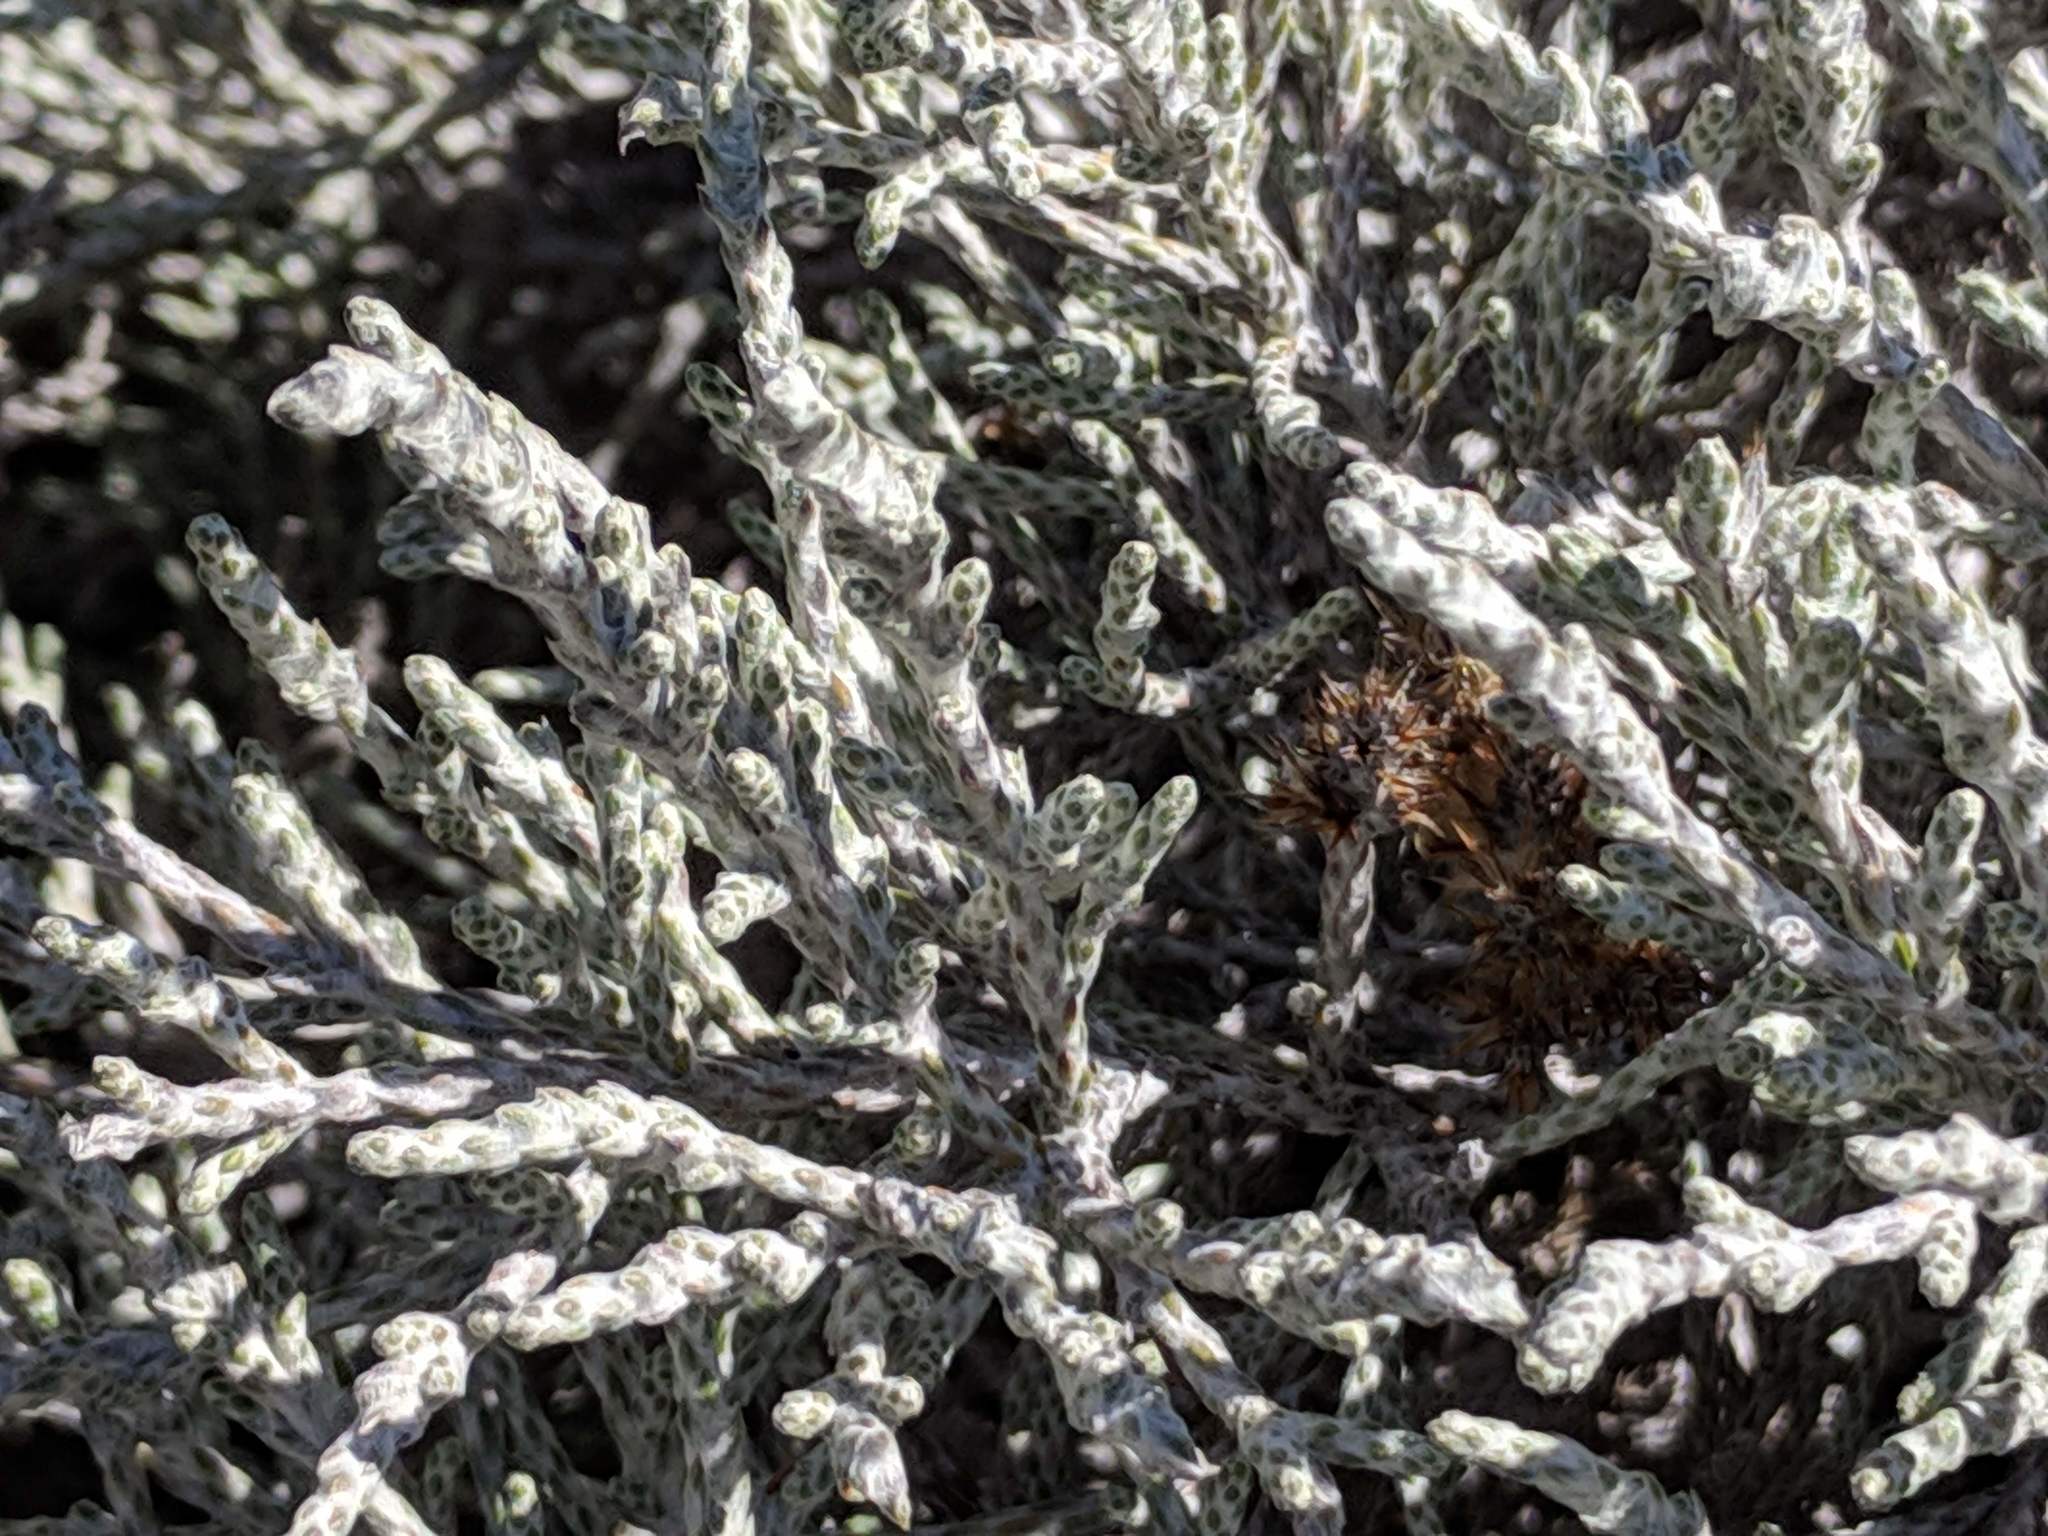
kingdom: Plantae
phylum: Tracheophyta
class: Magnoliopsida
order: Asterales
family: Asteraceae
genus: Seriphium
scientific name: Seriphium passerinoides
